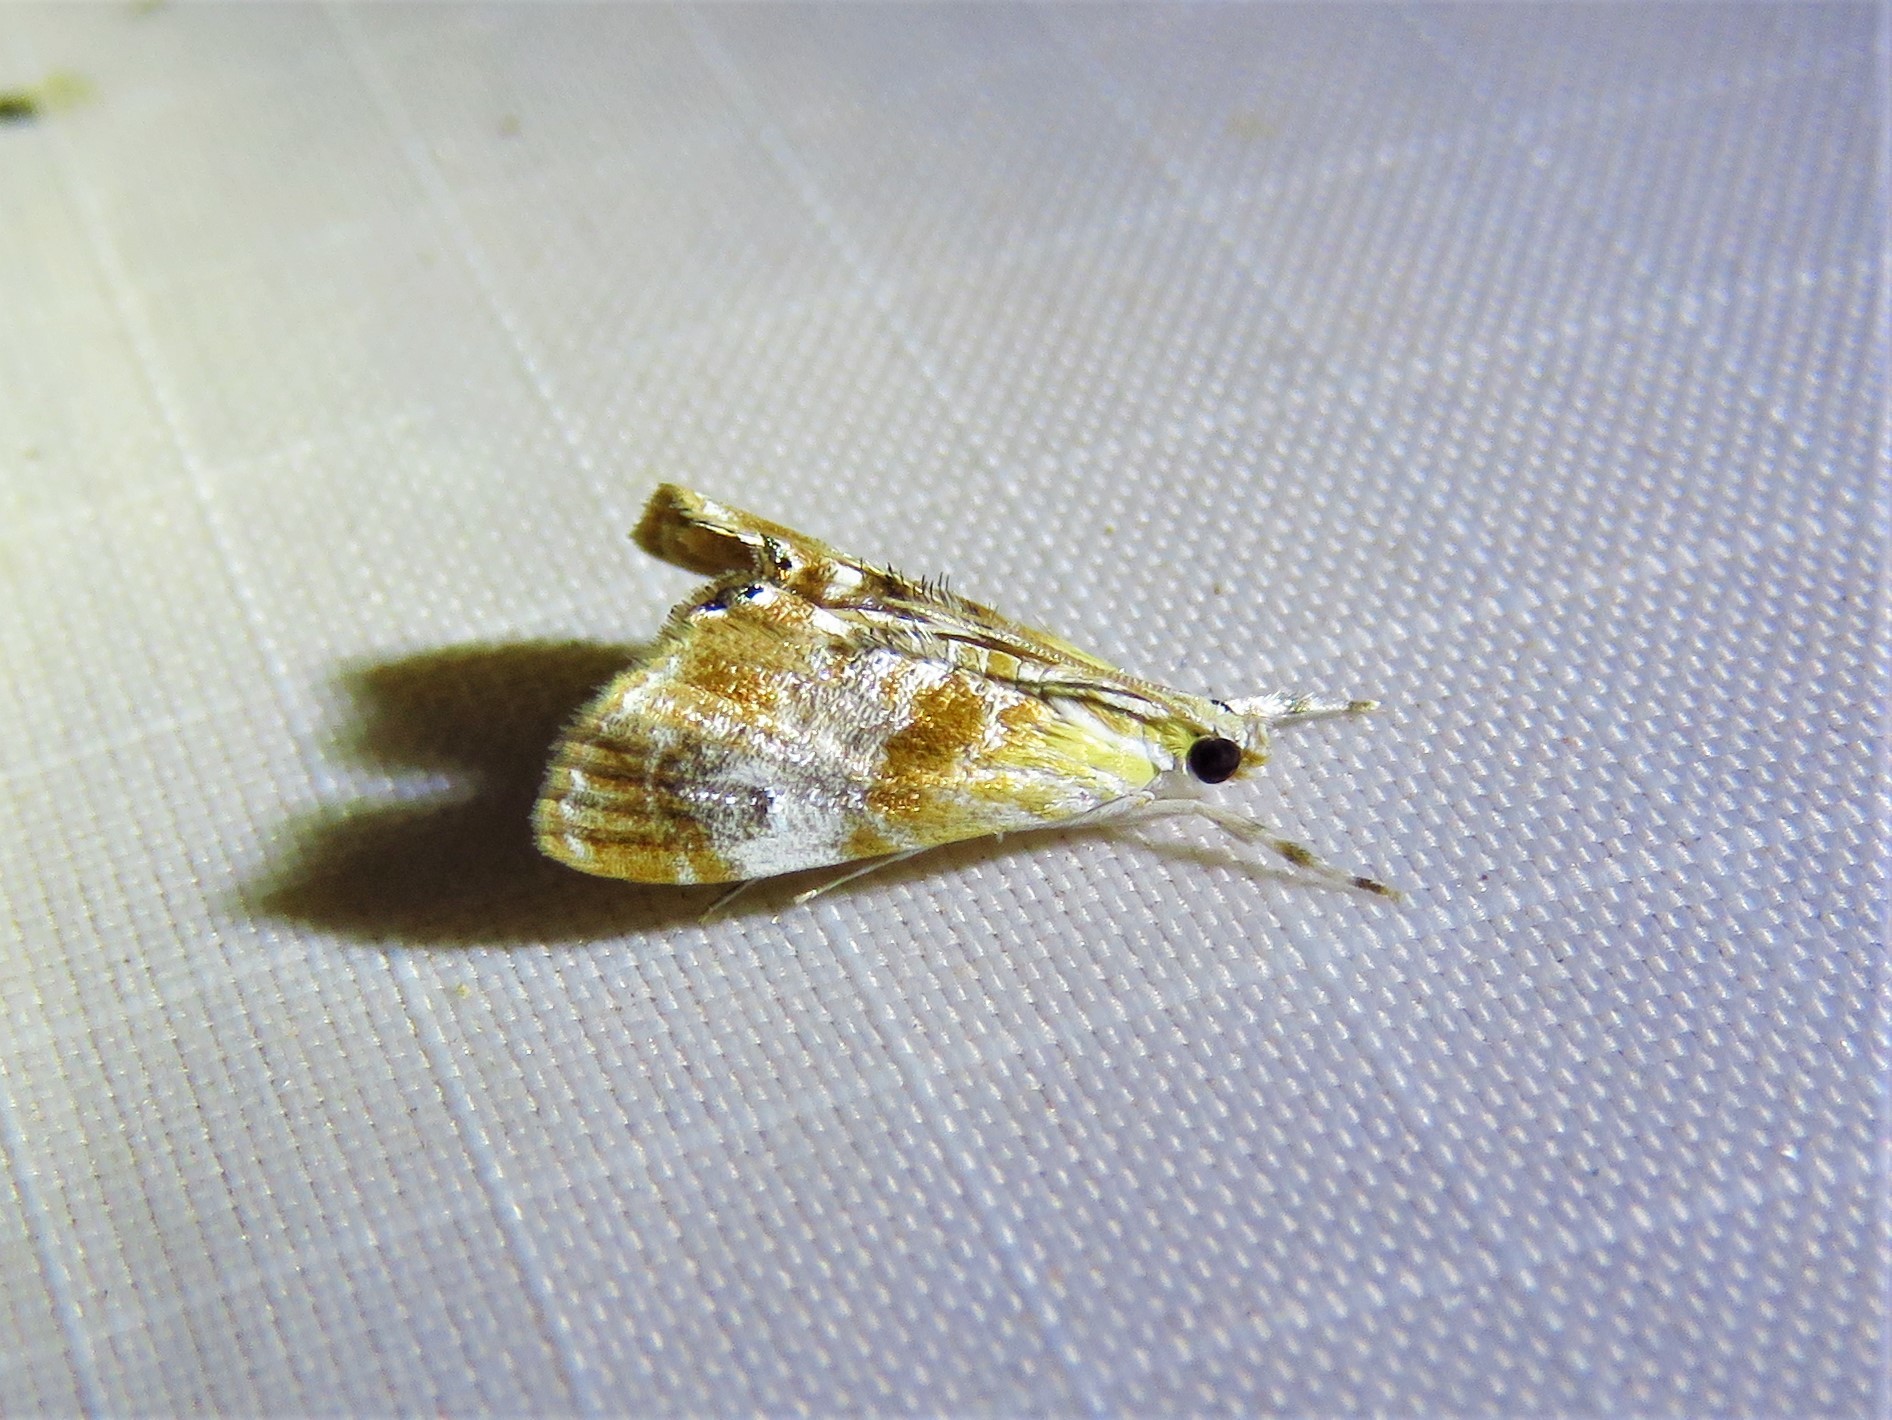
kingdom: Animalia
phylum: Arthropoda
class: Insecta
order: Lepidoptera
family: Crambidae
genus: Dicymolomia
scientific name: Dicymolomia julianalis
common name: Julia's dicymolomia moth
